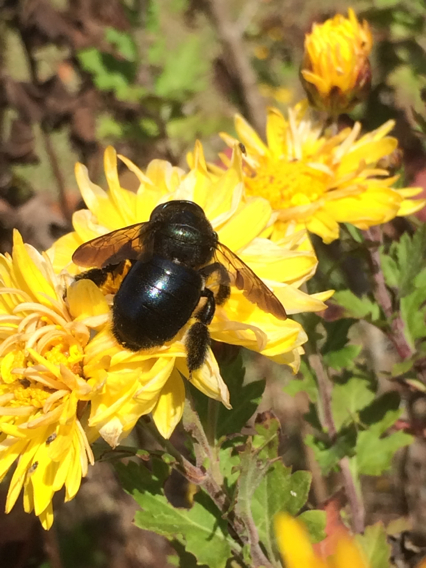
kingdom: Animalia
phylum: Arthropoda
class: Insecta
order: Hymenoptera
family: Apidae
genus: Xylocopa
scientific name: Xylocopa micans
